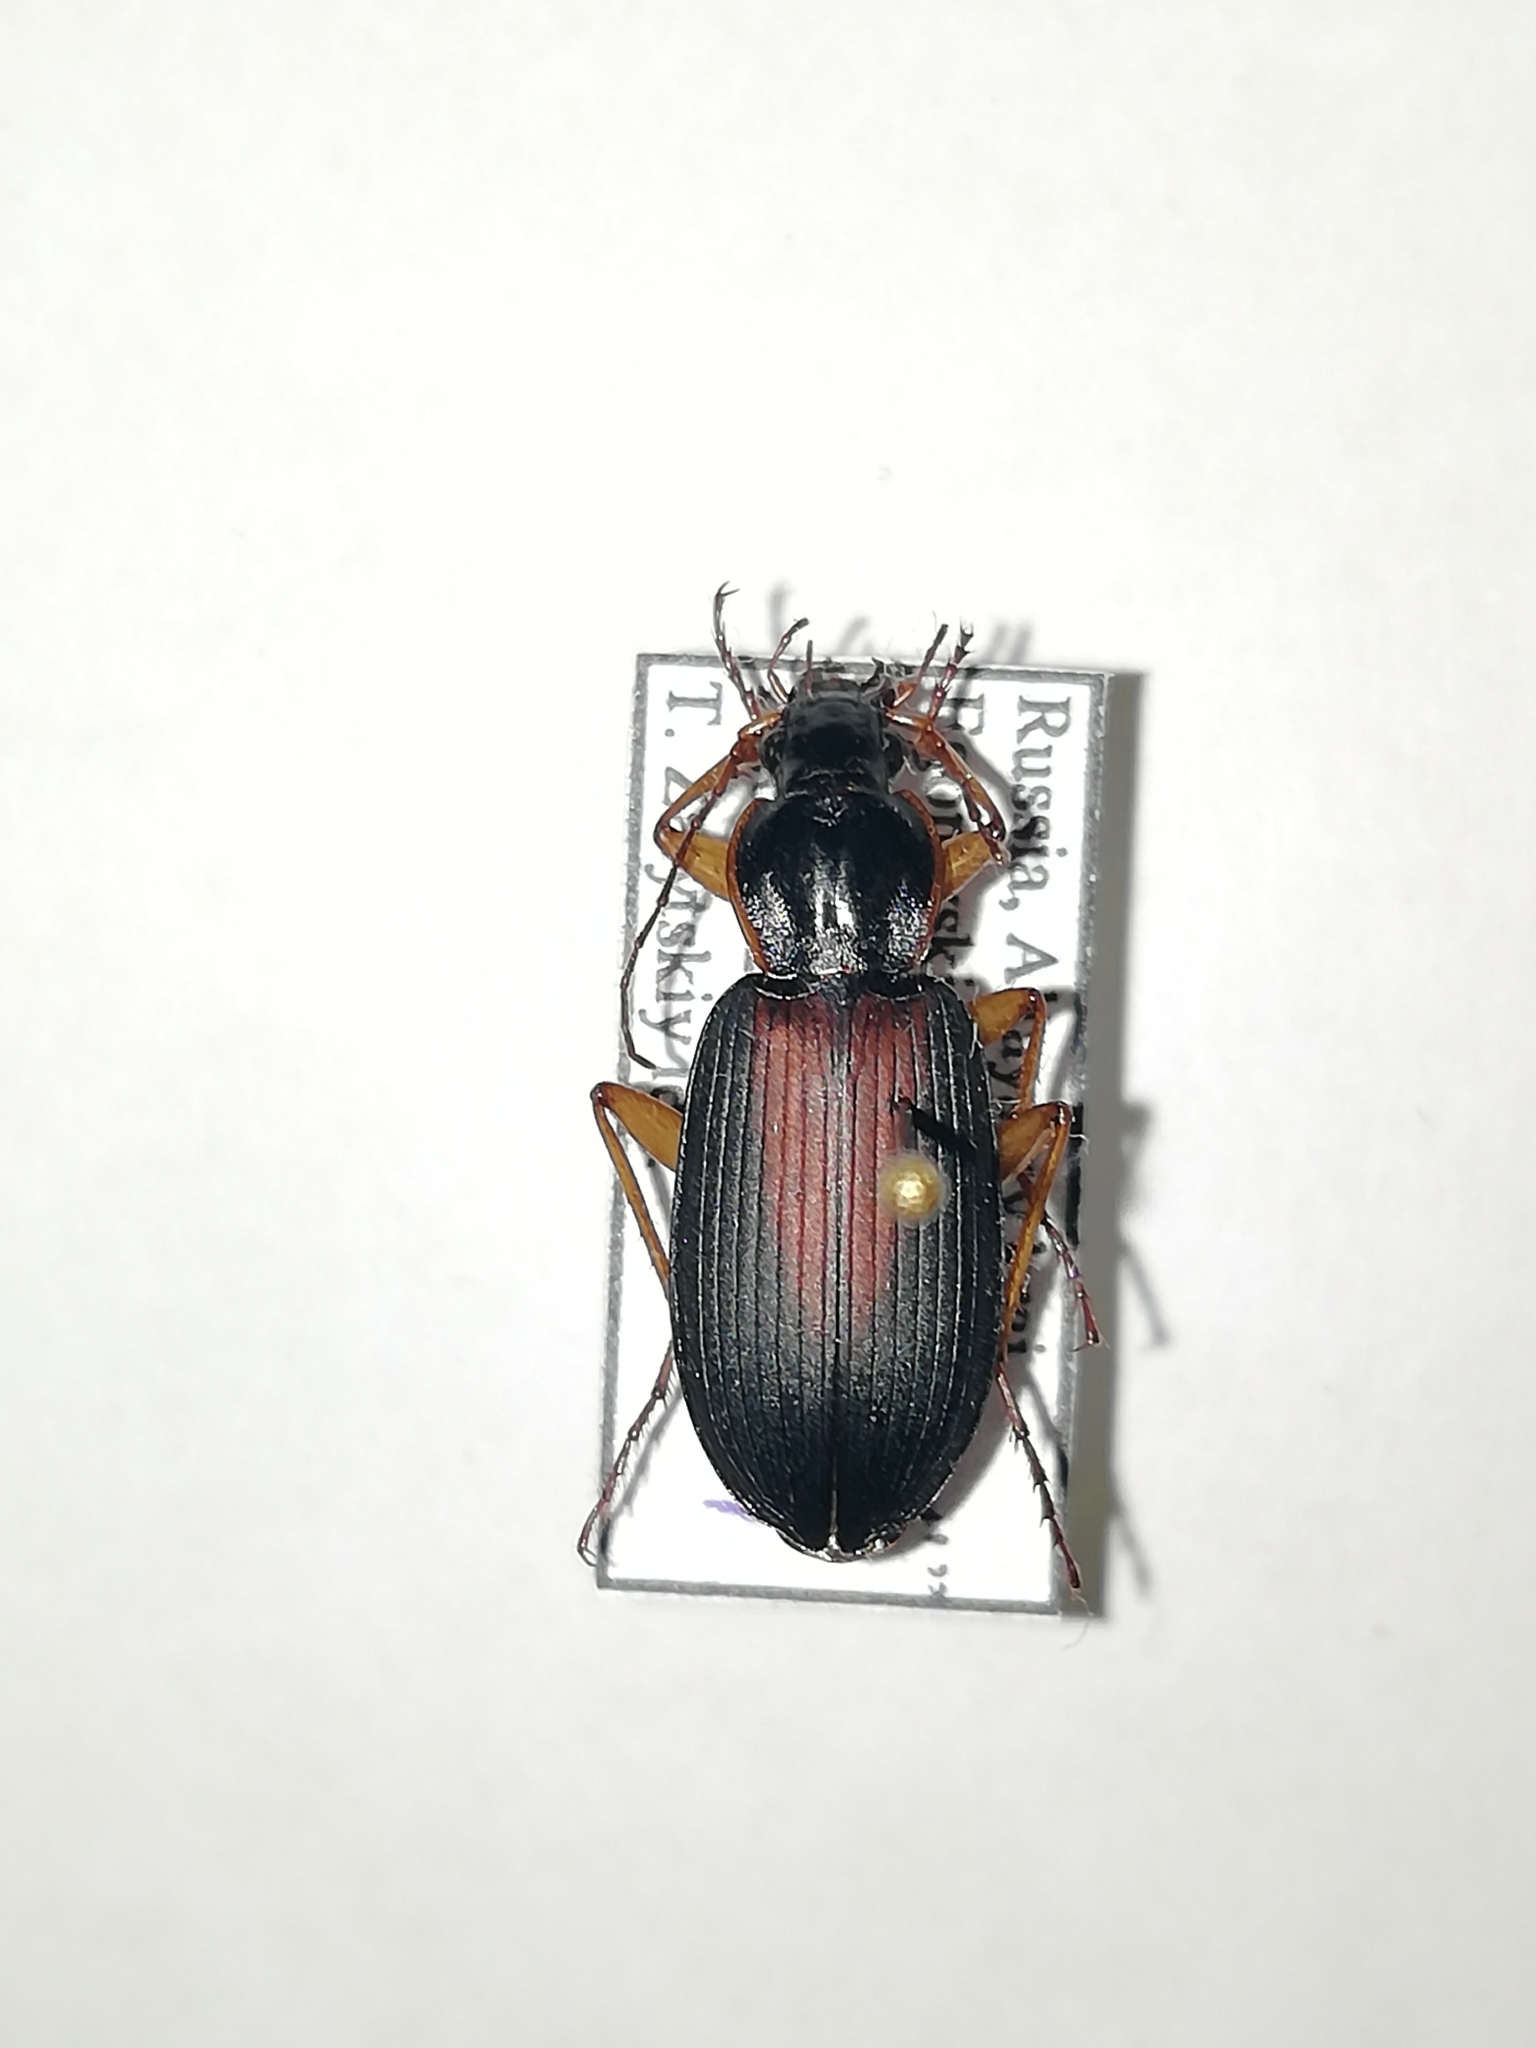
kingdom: Animalia
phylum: Arthropoda
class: Insecta
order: Coleoptera
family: Carabidae
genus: Dolichus
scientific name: Dolichus halensis
